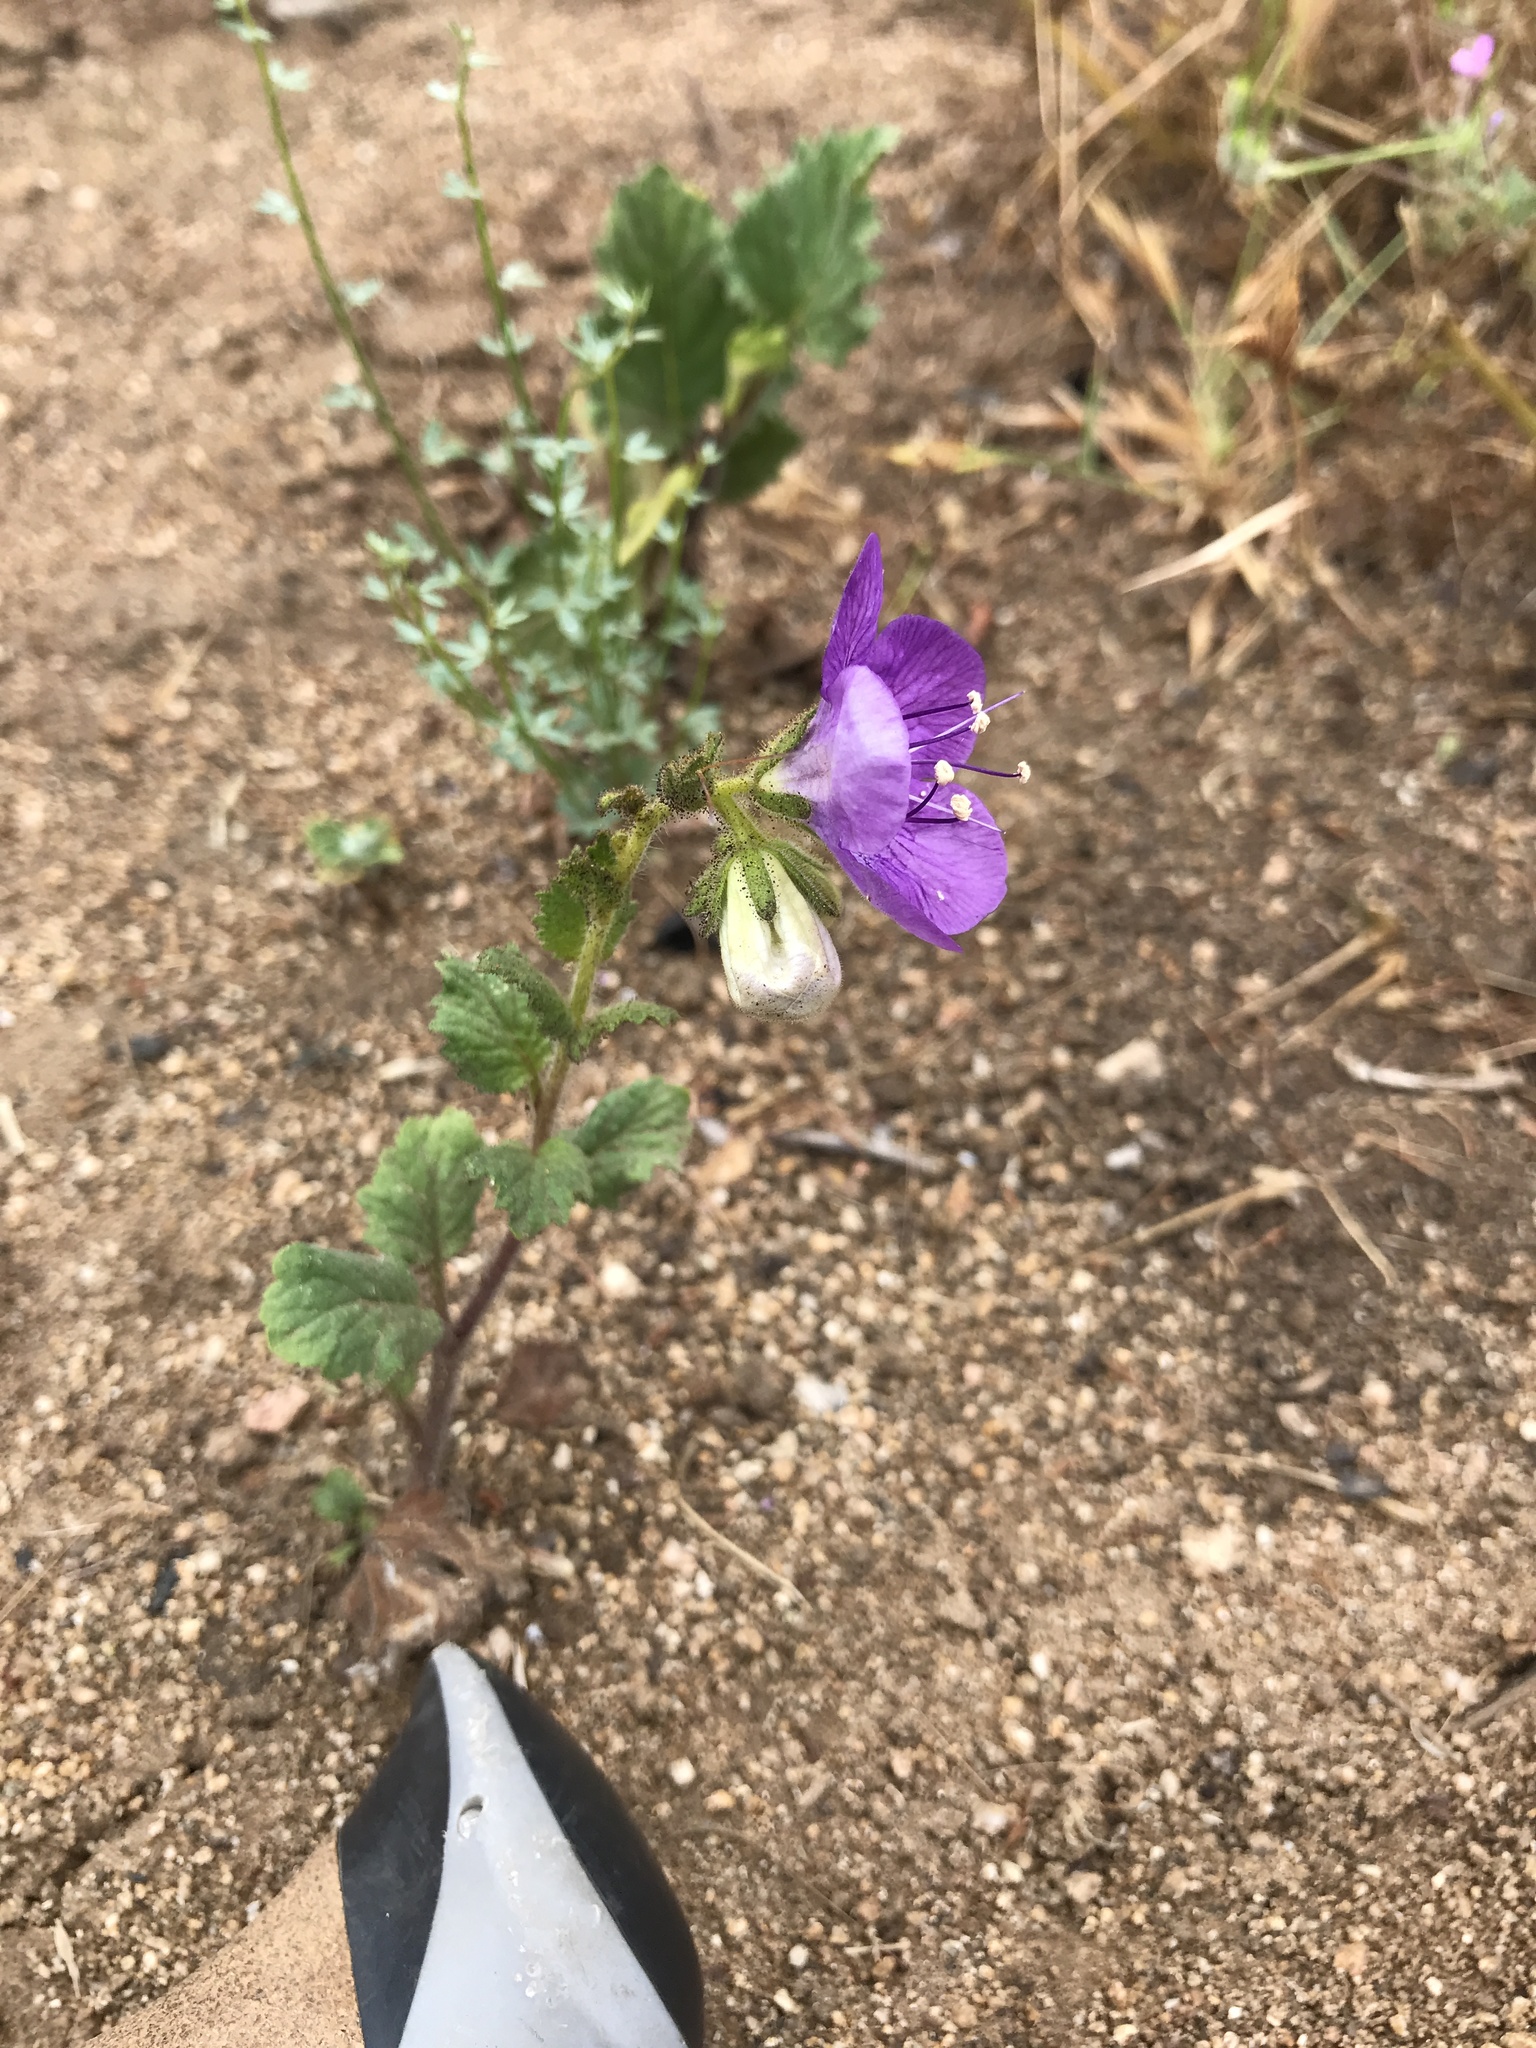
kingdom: Plantae
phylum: Tracheophyta
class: Magnoliopsida
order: Boraginales
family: Hydrophyllaceae
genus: Phacelia
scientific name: Phacelia grandiflora
